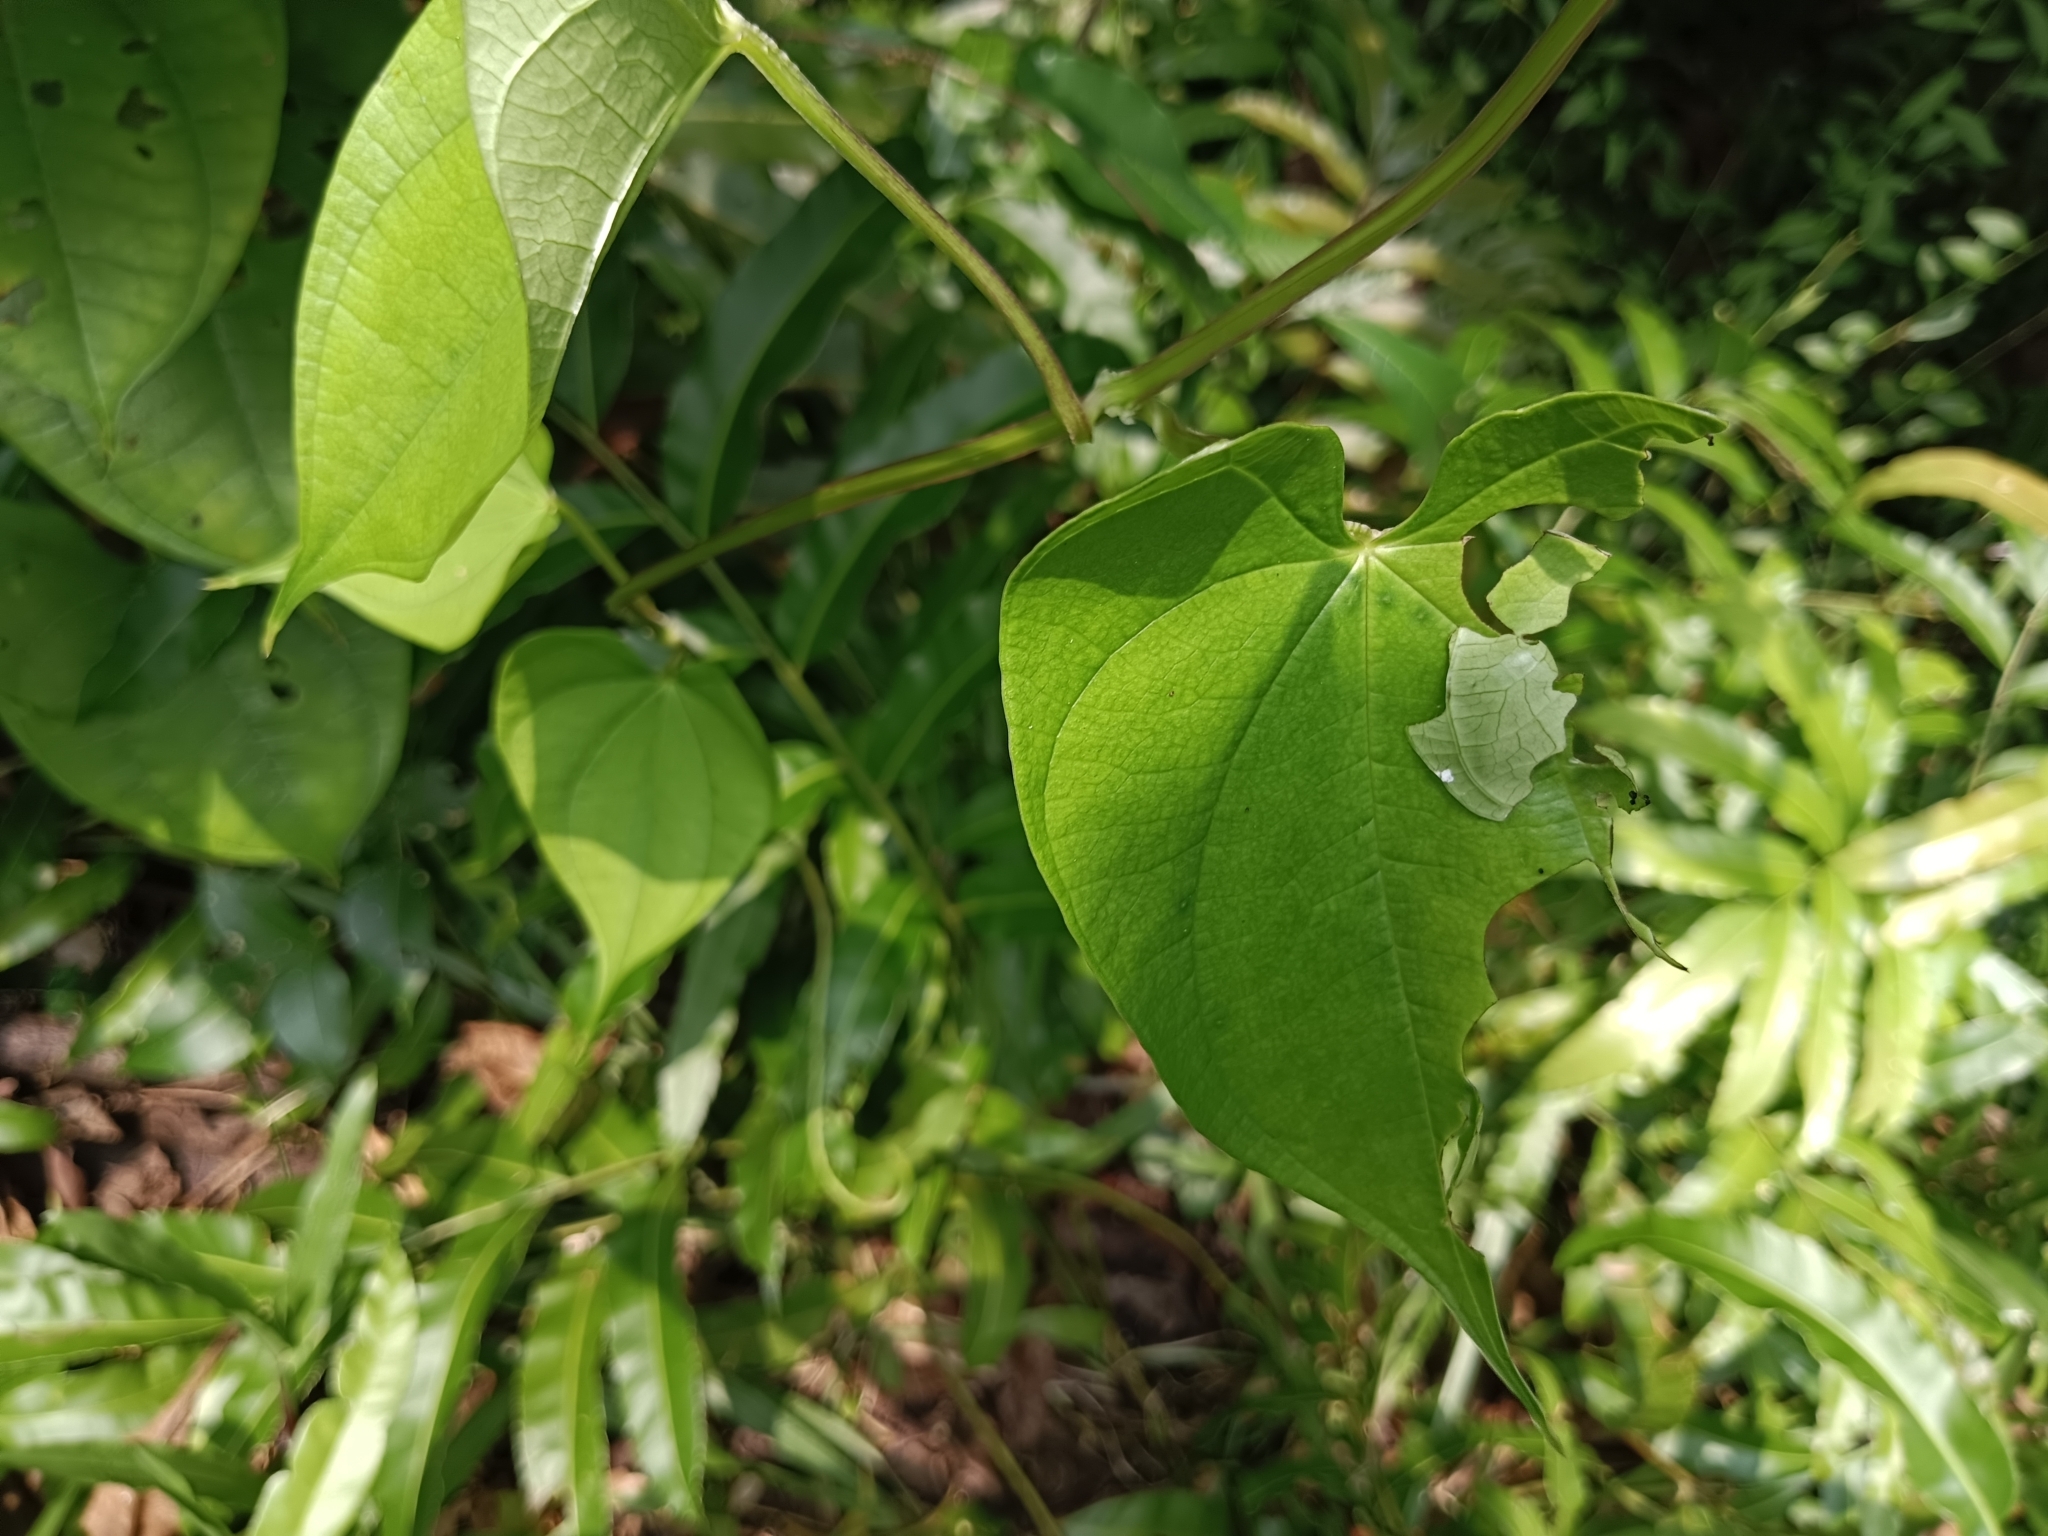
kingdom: Animalia
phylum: Arthropoda
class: Insecta
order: Lepidoptera
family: Hesperiidae
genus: Tagiades
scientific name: Tagiades litigiosa
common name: Water snow flat
